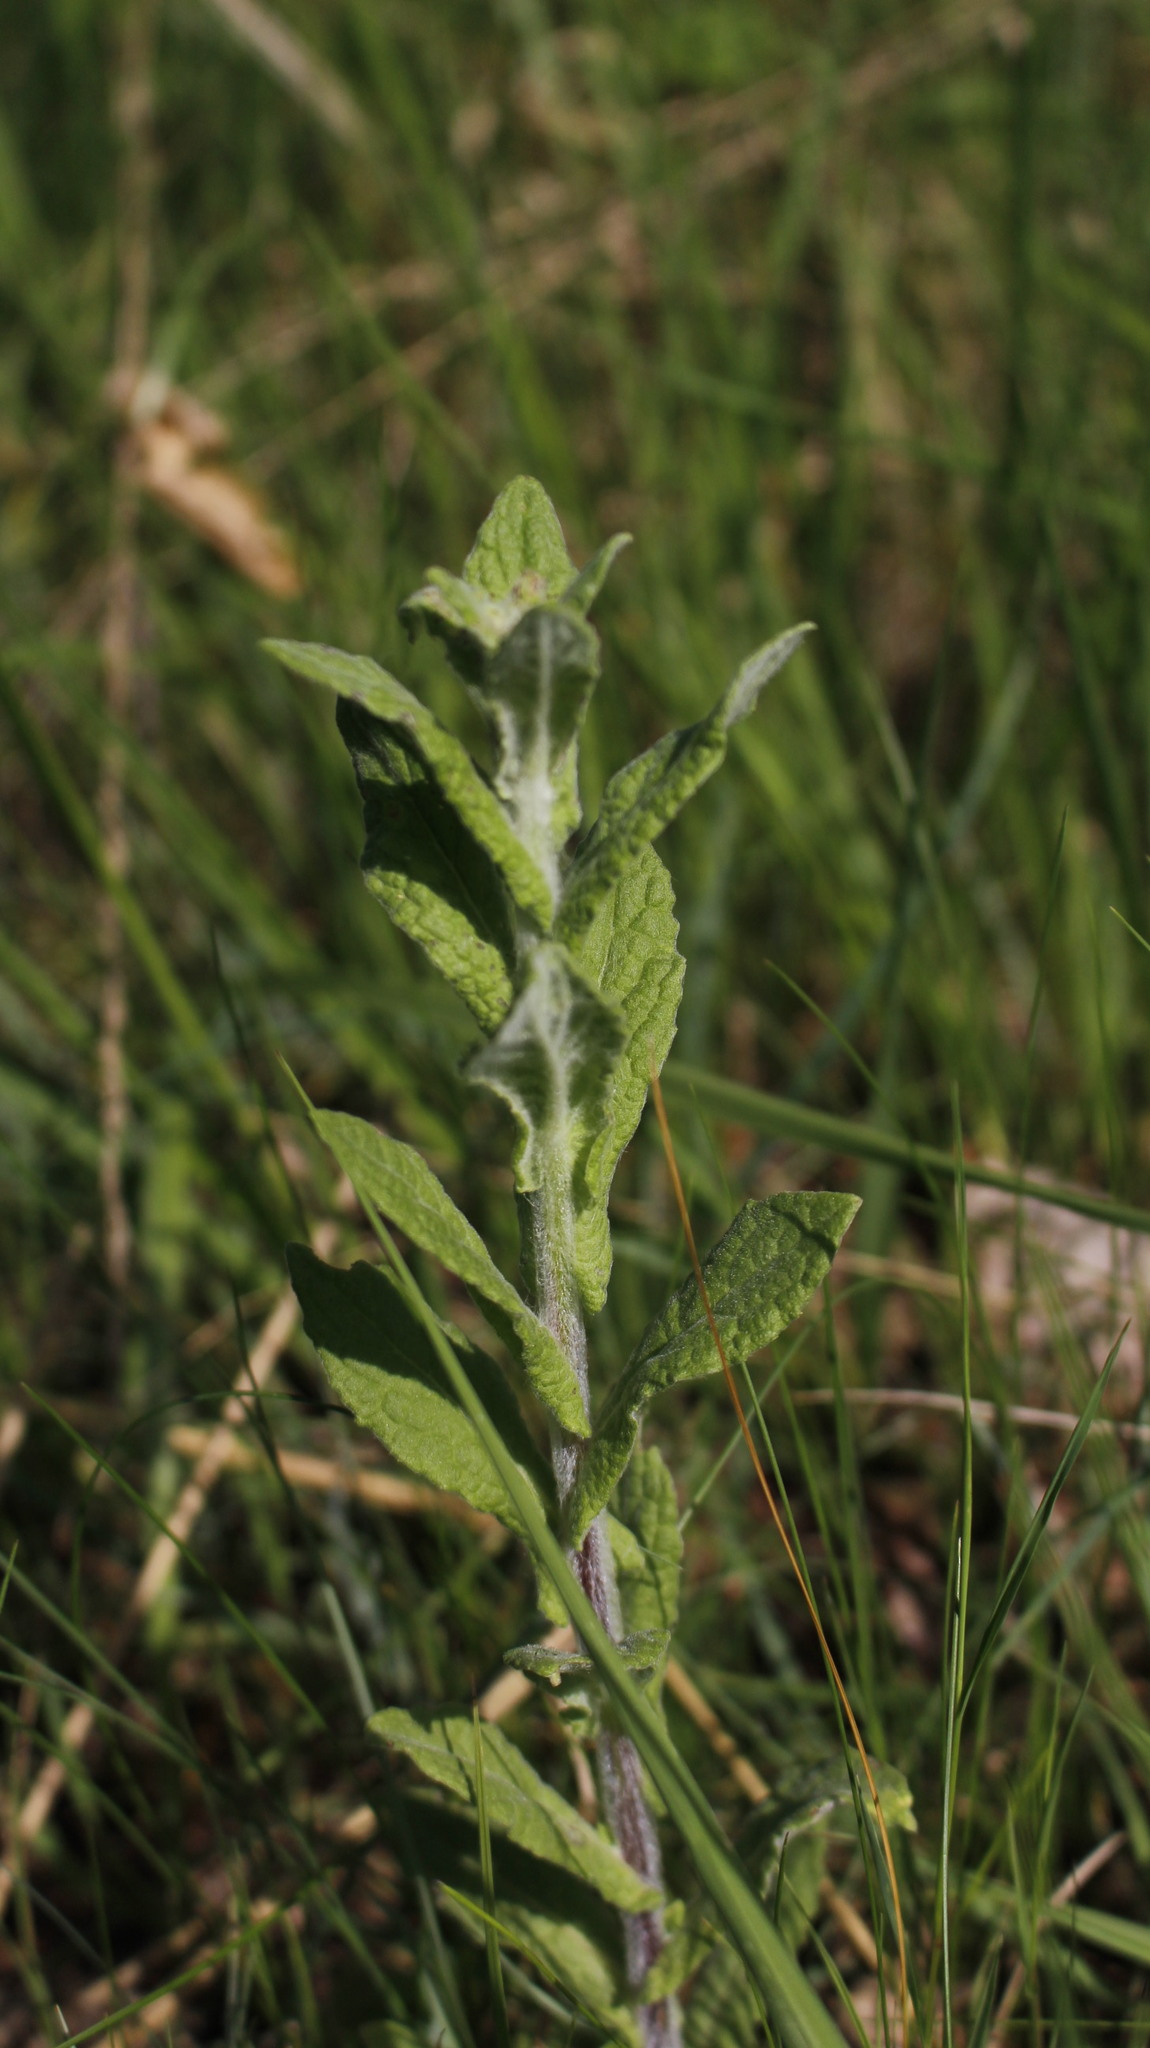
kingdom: Plantae
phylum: Tracheophyta
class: Magnoliopsida
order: Asterales
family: Asteraceae
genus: Pulicaria
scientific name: Pulicaria dysenterica
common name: Common fleabane
